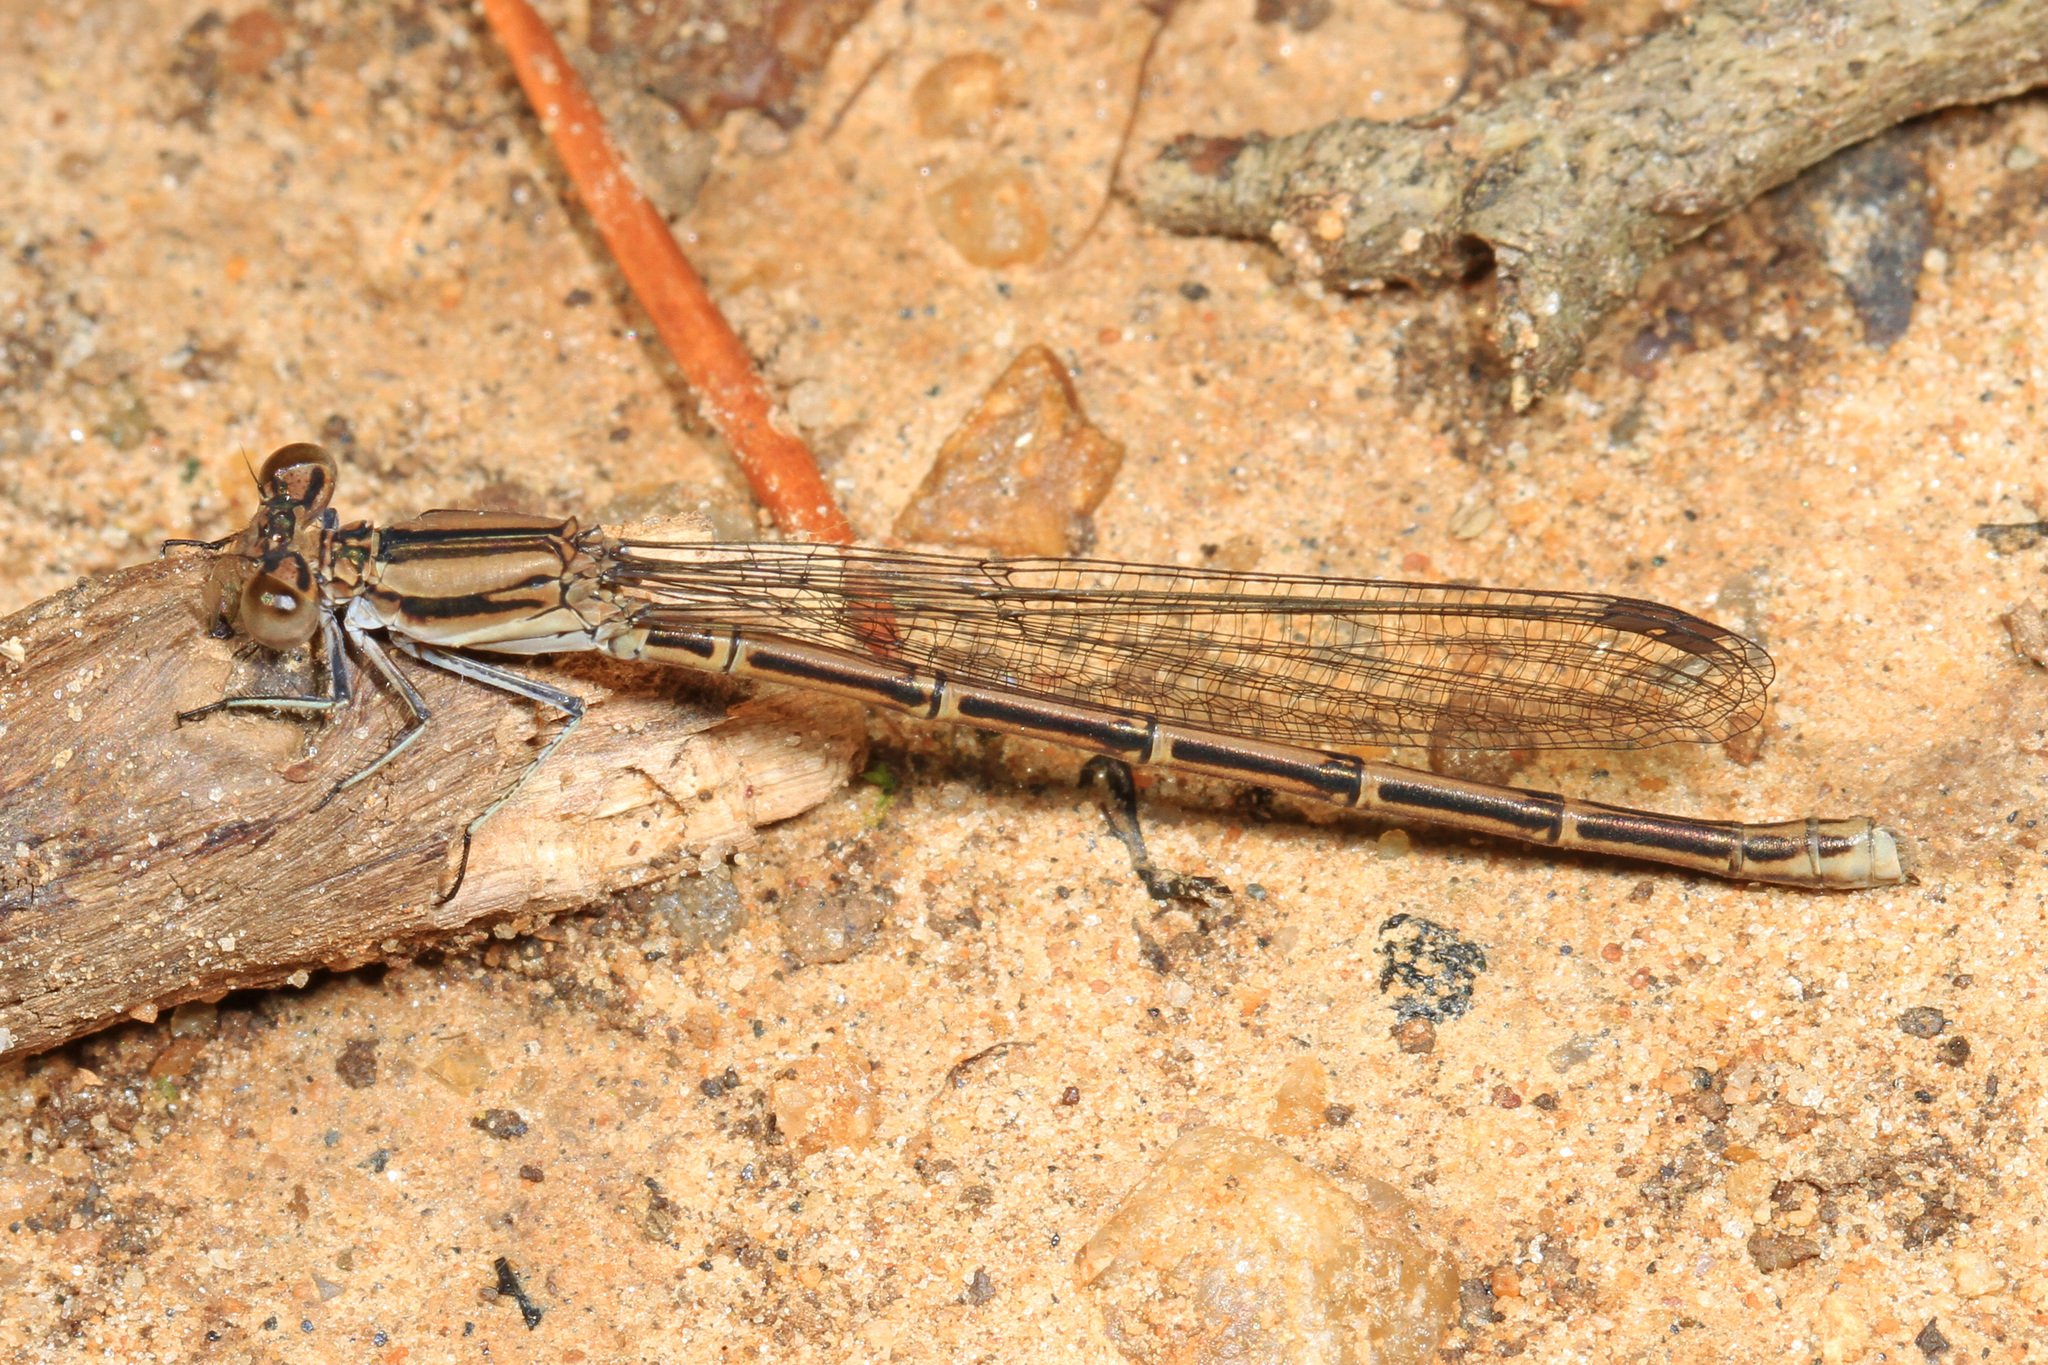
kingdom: Animalia
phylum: Arthropoda
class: Insecta
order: Odonata
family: Coenagrionidae
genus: Argia
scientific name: Argia fumipennis
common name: Variable dancer
